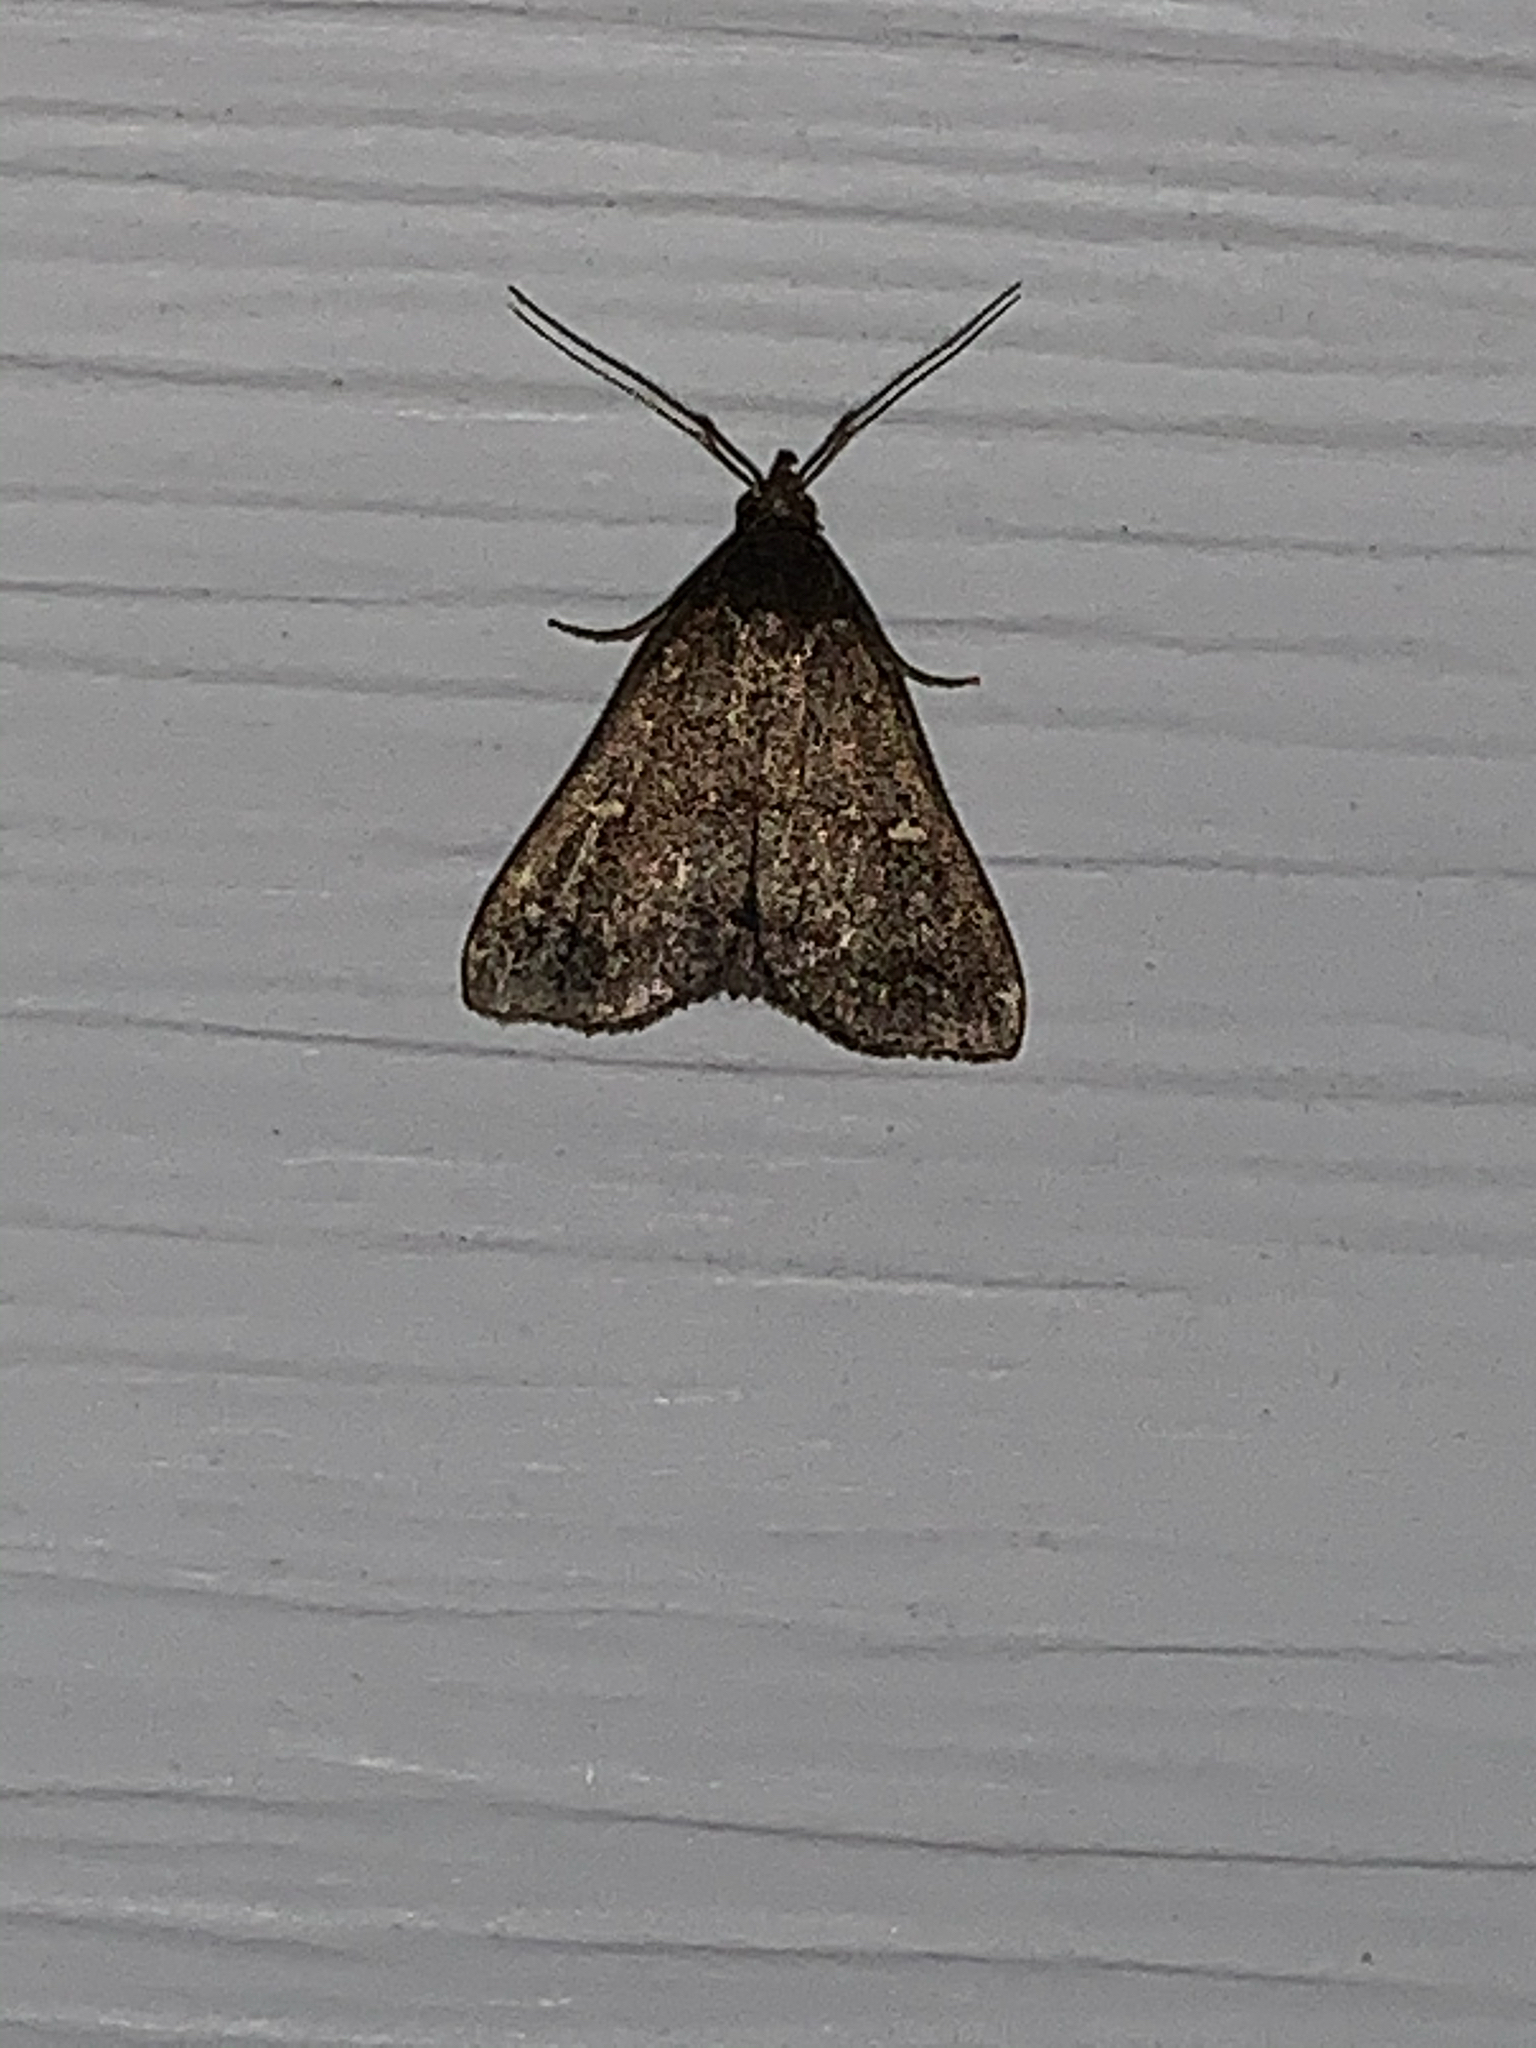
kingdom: Animalia
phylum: Arthropoda
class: Insecta
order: Lepidoptera
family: Erebidae
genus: Tetanolita
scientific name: Tetanolita mynesalis
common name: Smoky tetanolita moth
